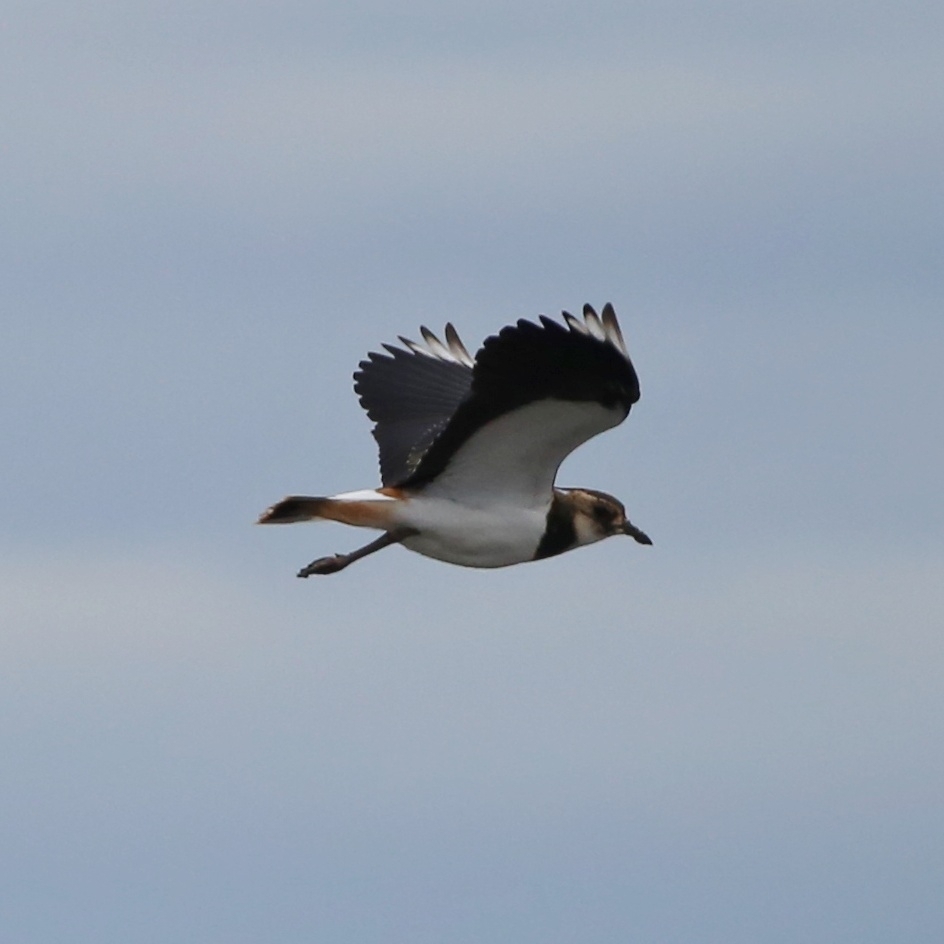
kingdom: Animalia
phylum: Chordata
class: Aves
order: Charadriiformes
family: Charadriidae
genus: Vanellus
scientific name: Vanellus vanellus
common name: Northern lapwing
